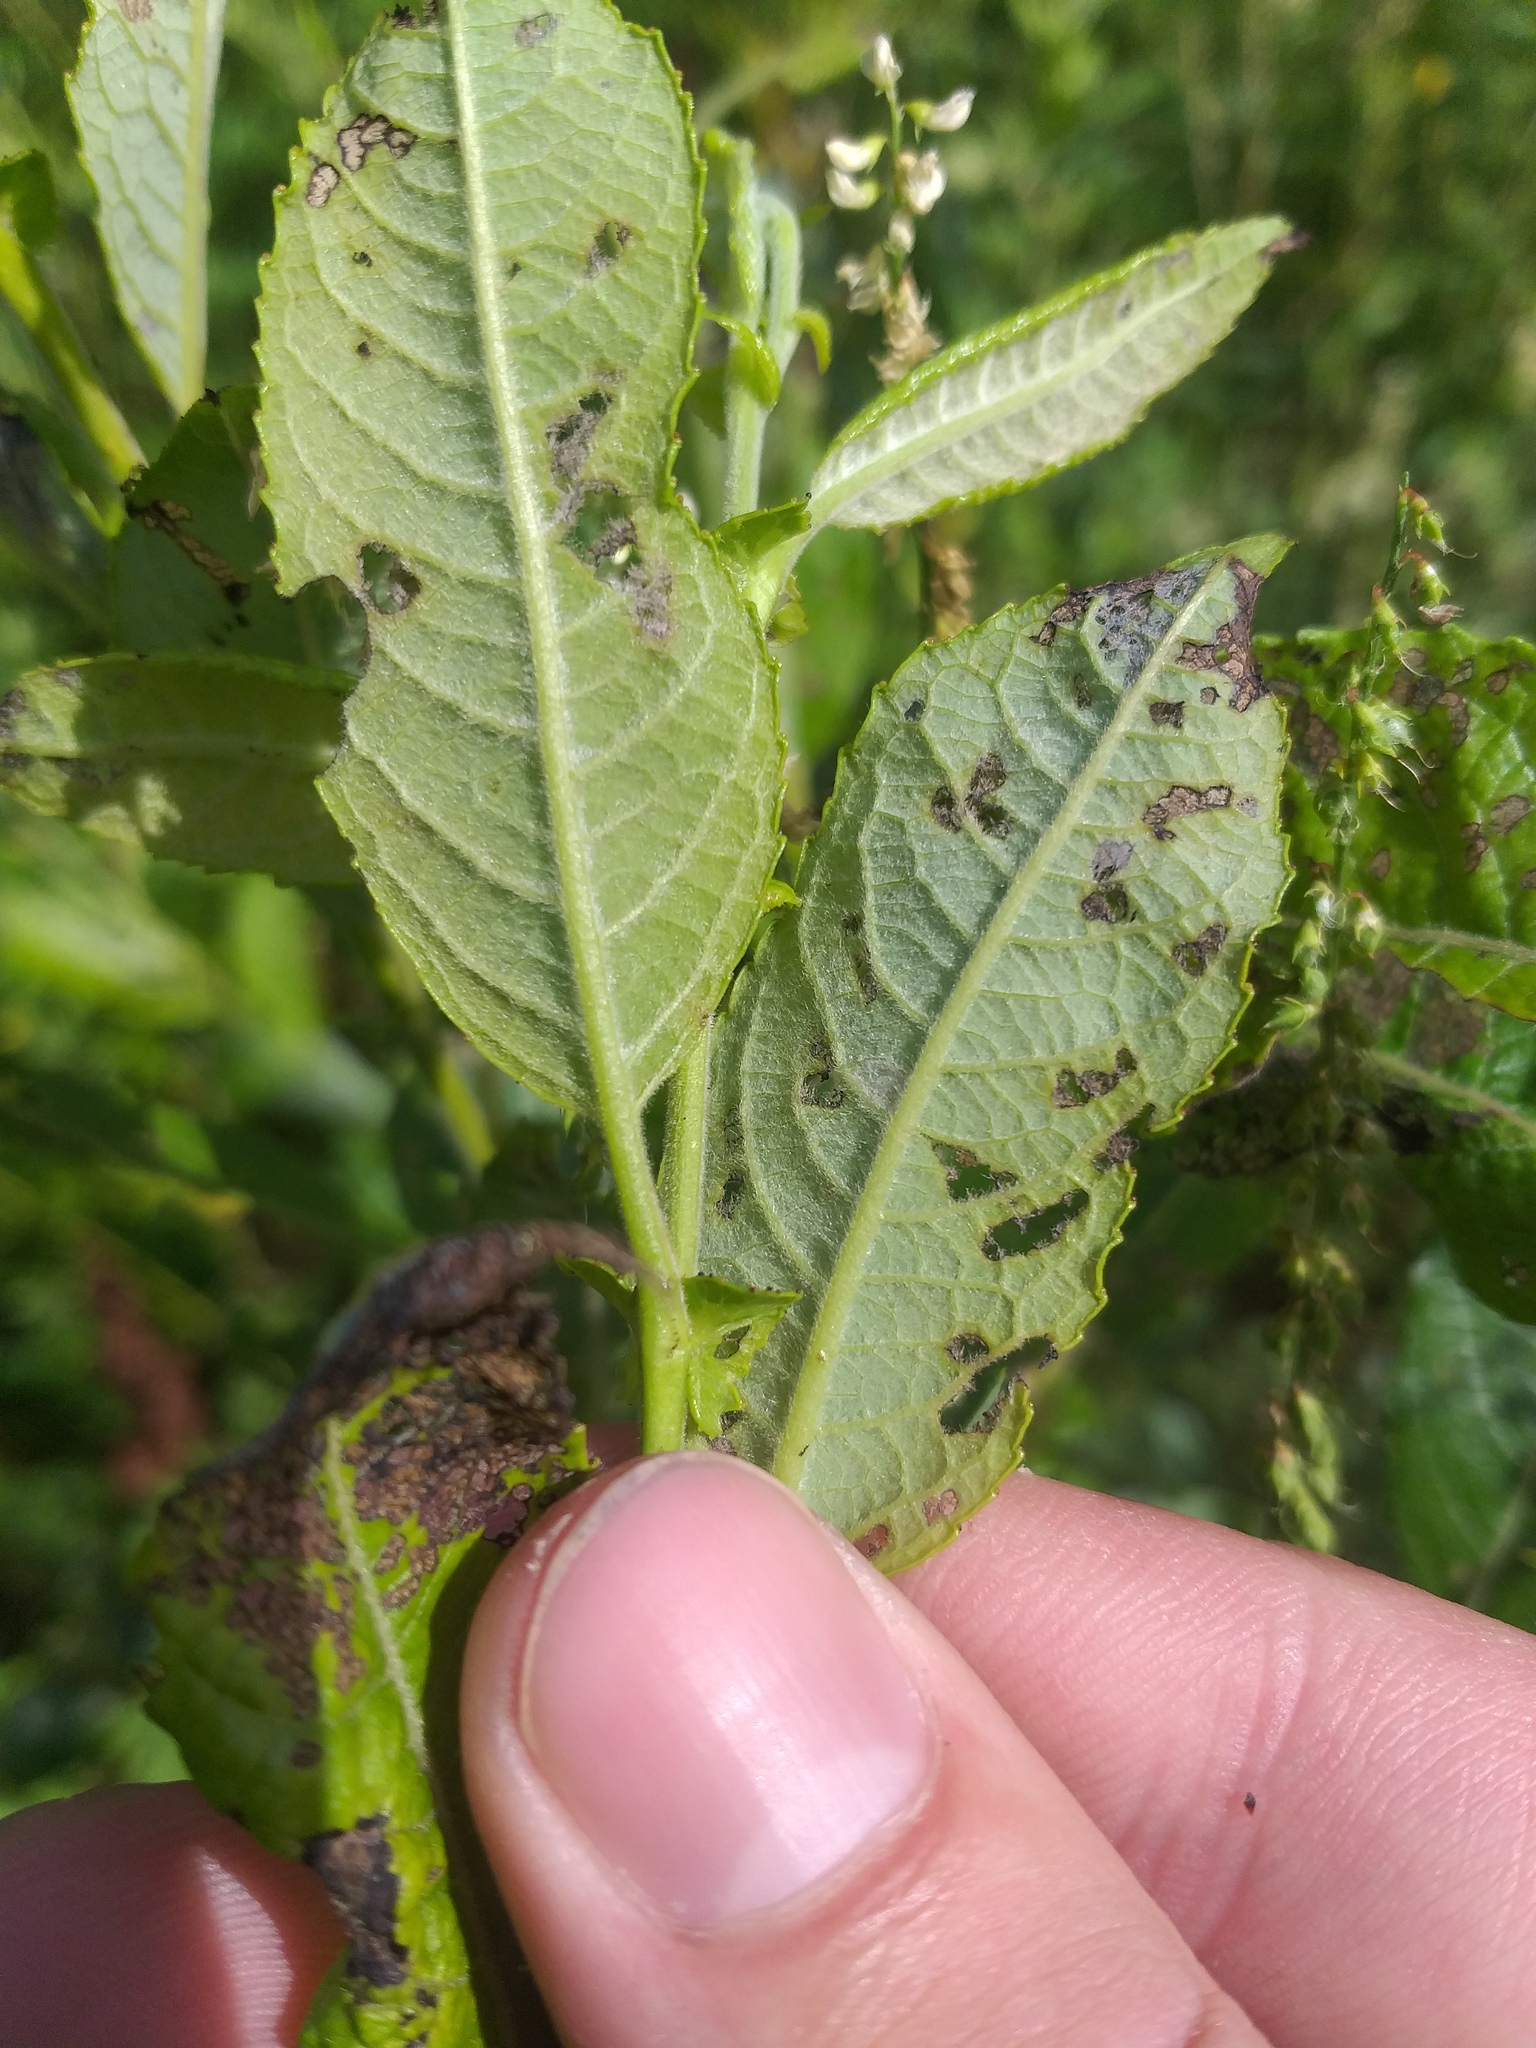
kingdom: Plantae
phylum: Tracheophyta
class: Magnoliopsida
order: Malpighiales
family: Salicaceae
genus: Salix
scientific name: Salix myrsinifolia
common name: Dark-leaved willow
